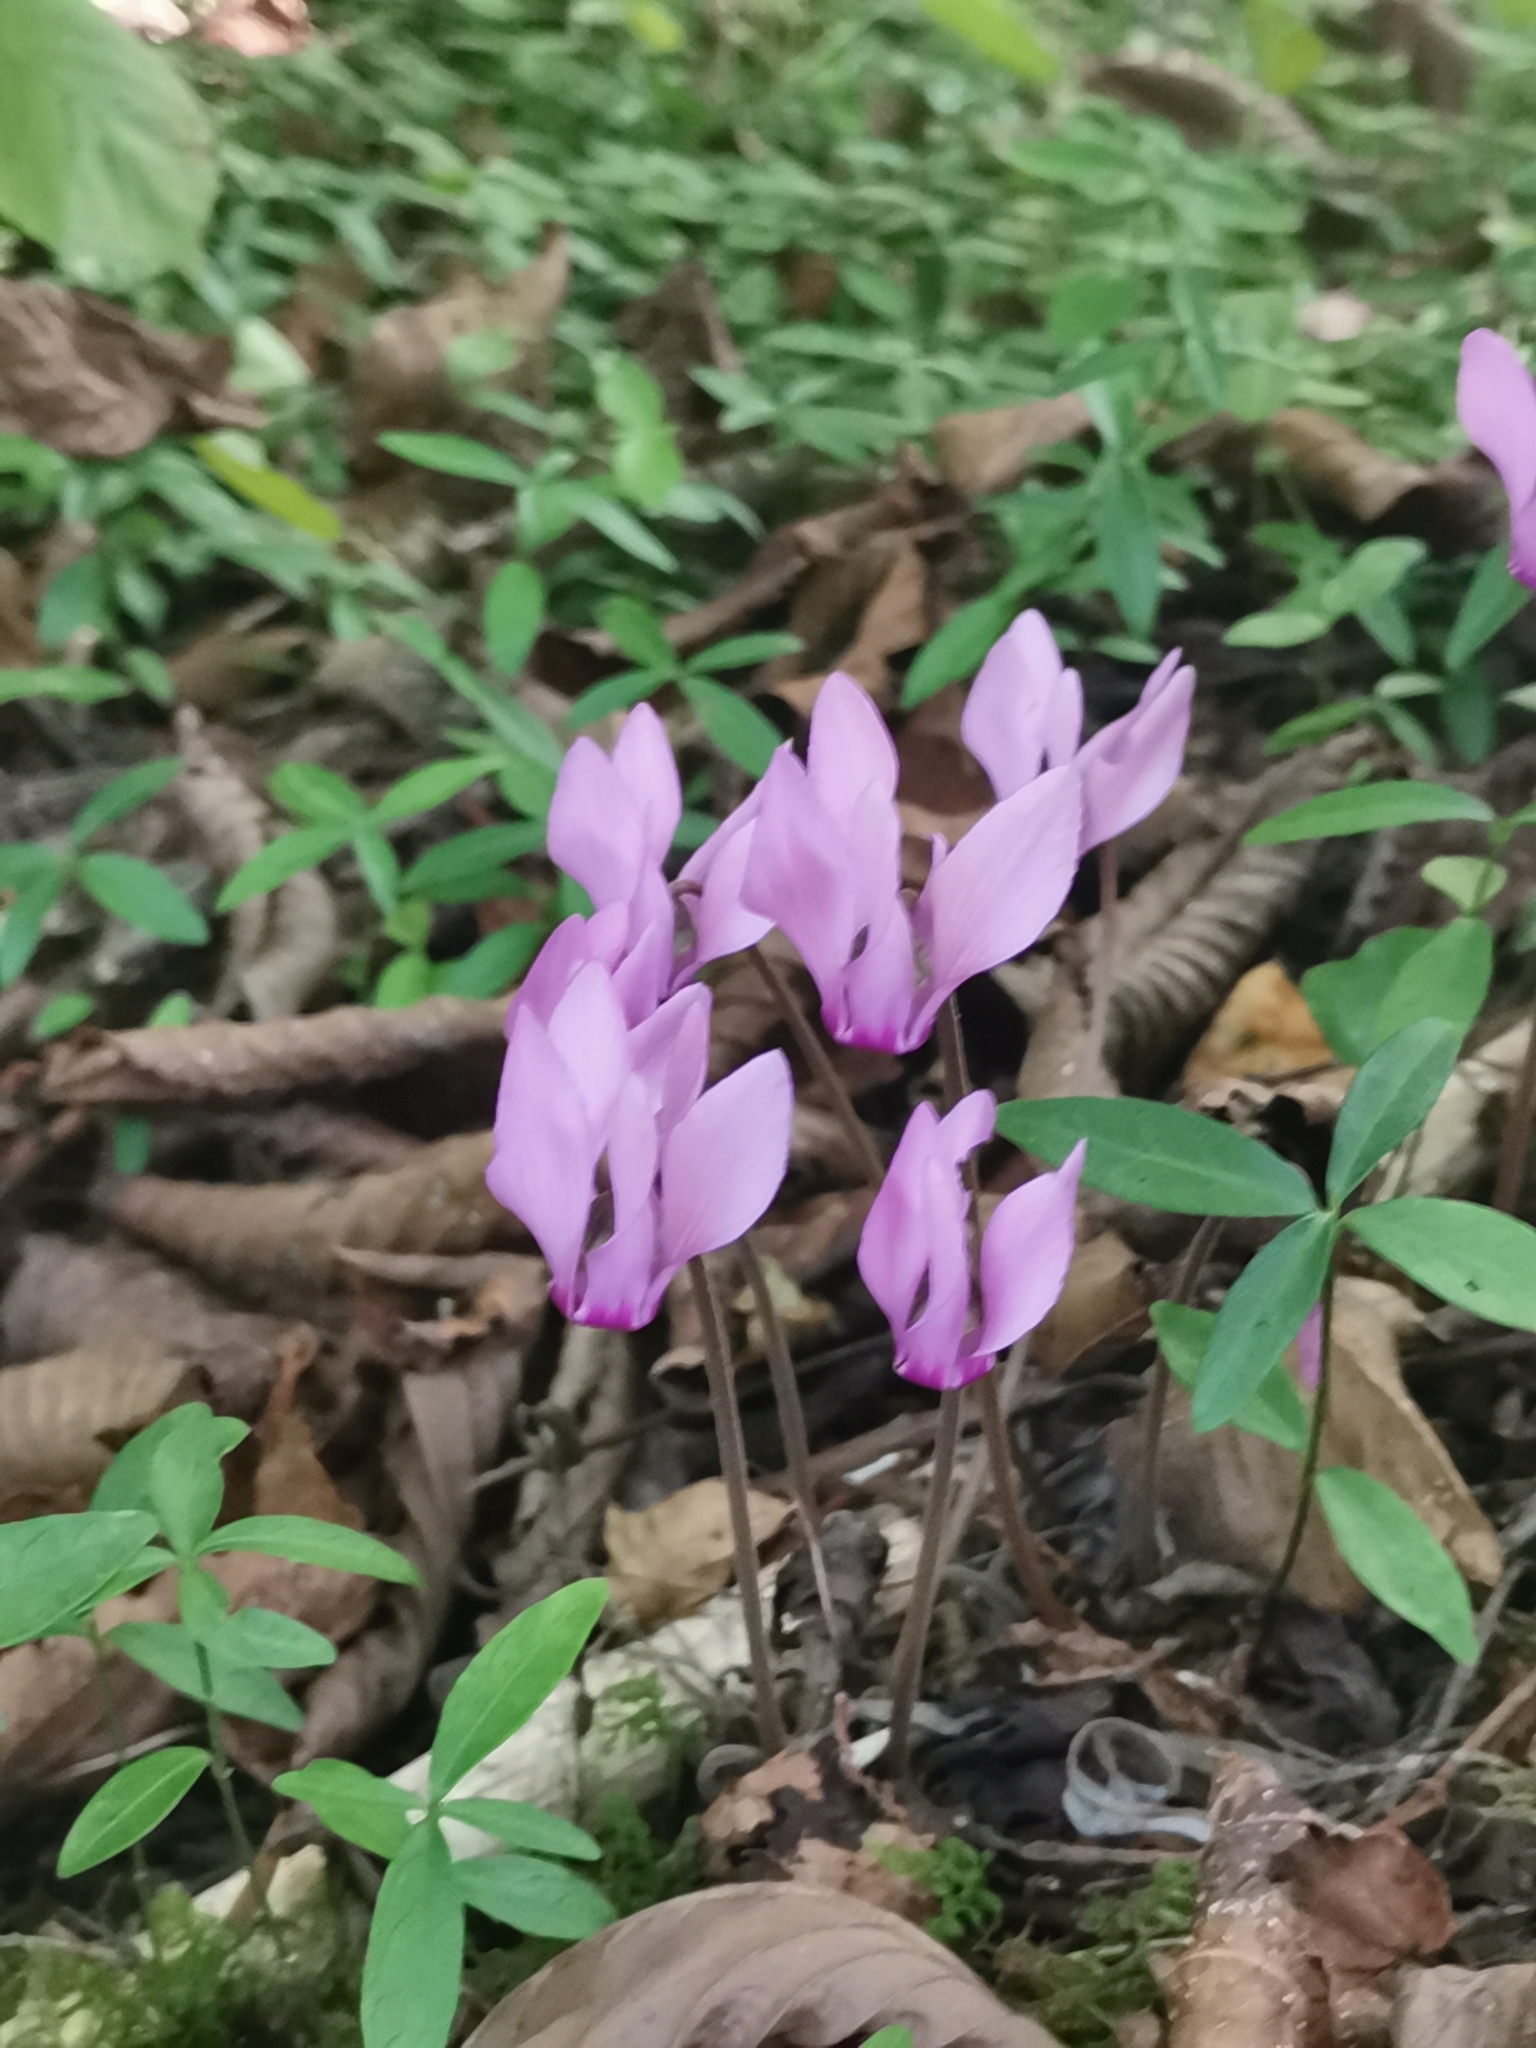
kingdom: Plantae
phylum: Tracheophyta
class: Magnoliopsida
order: Ericales
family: Primulaceae
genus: Cyclamen
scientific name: Cyclamen purpurascens
